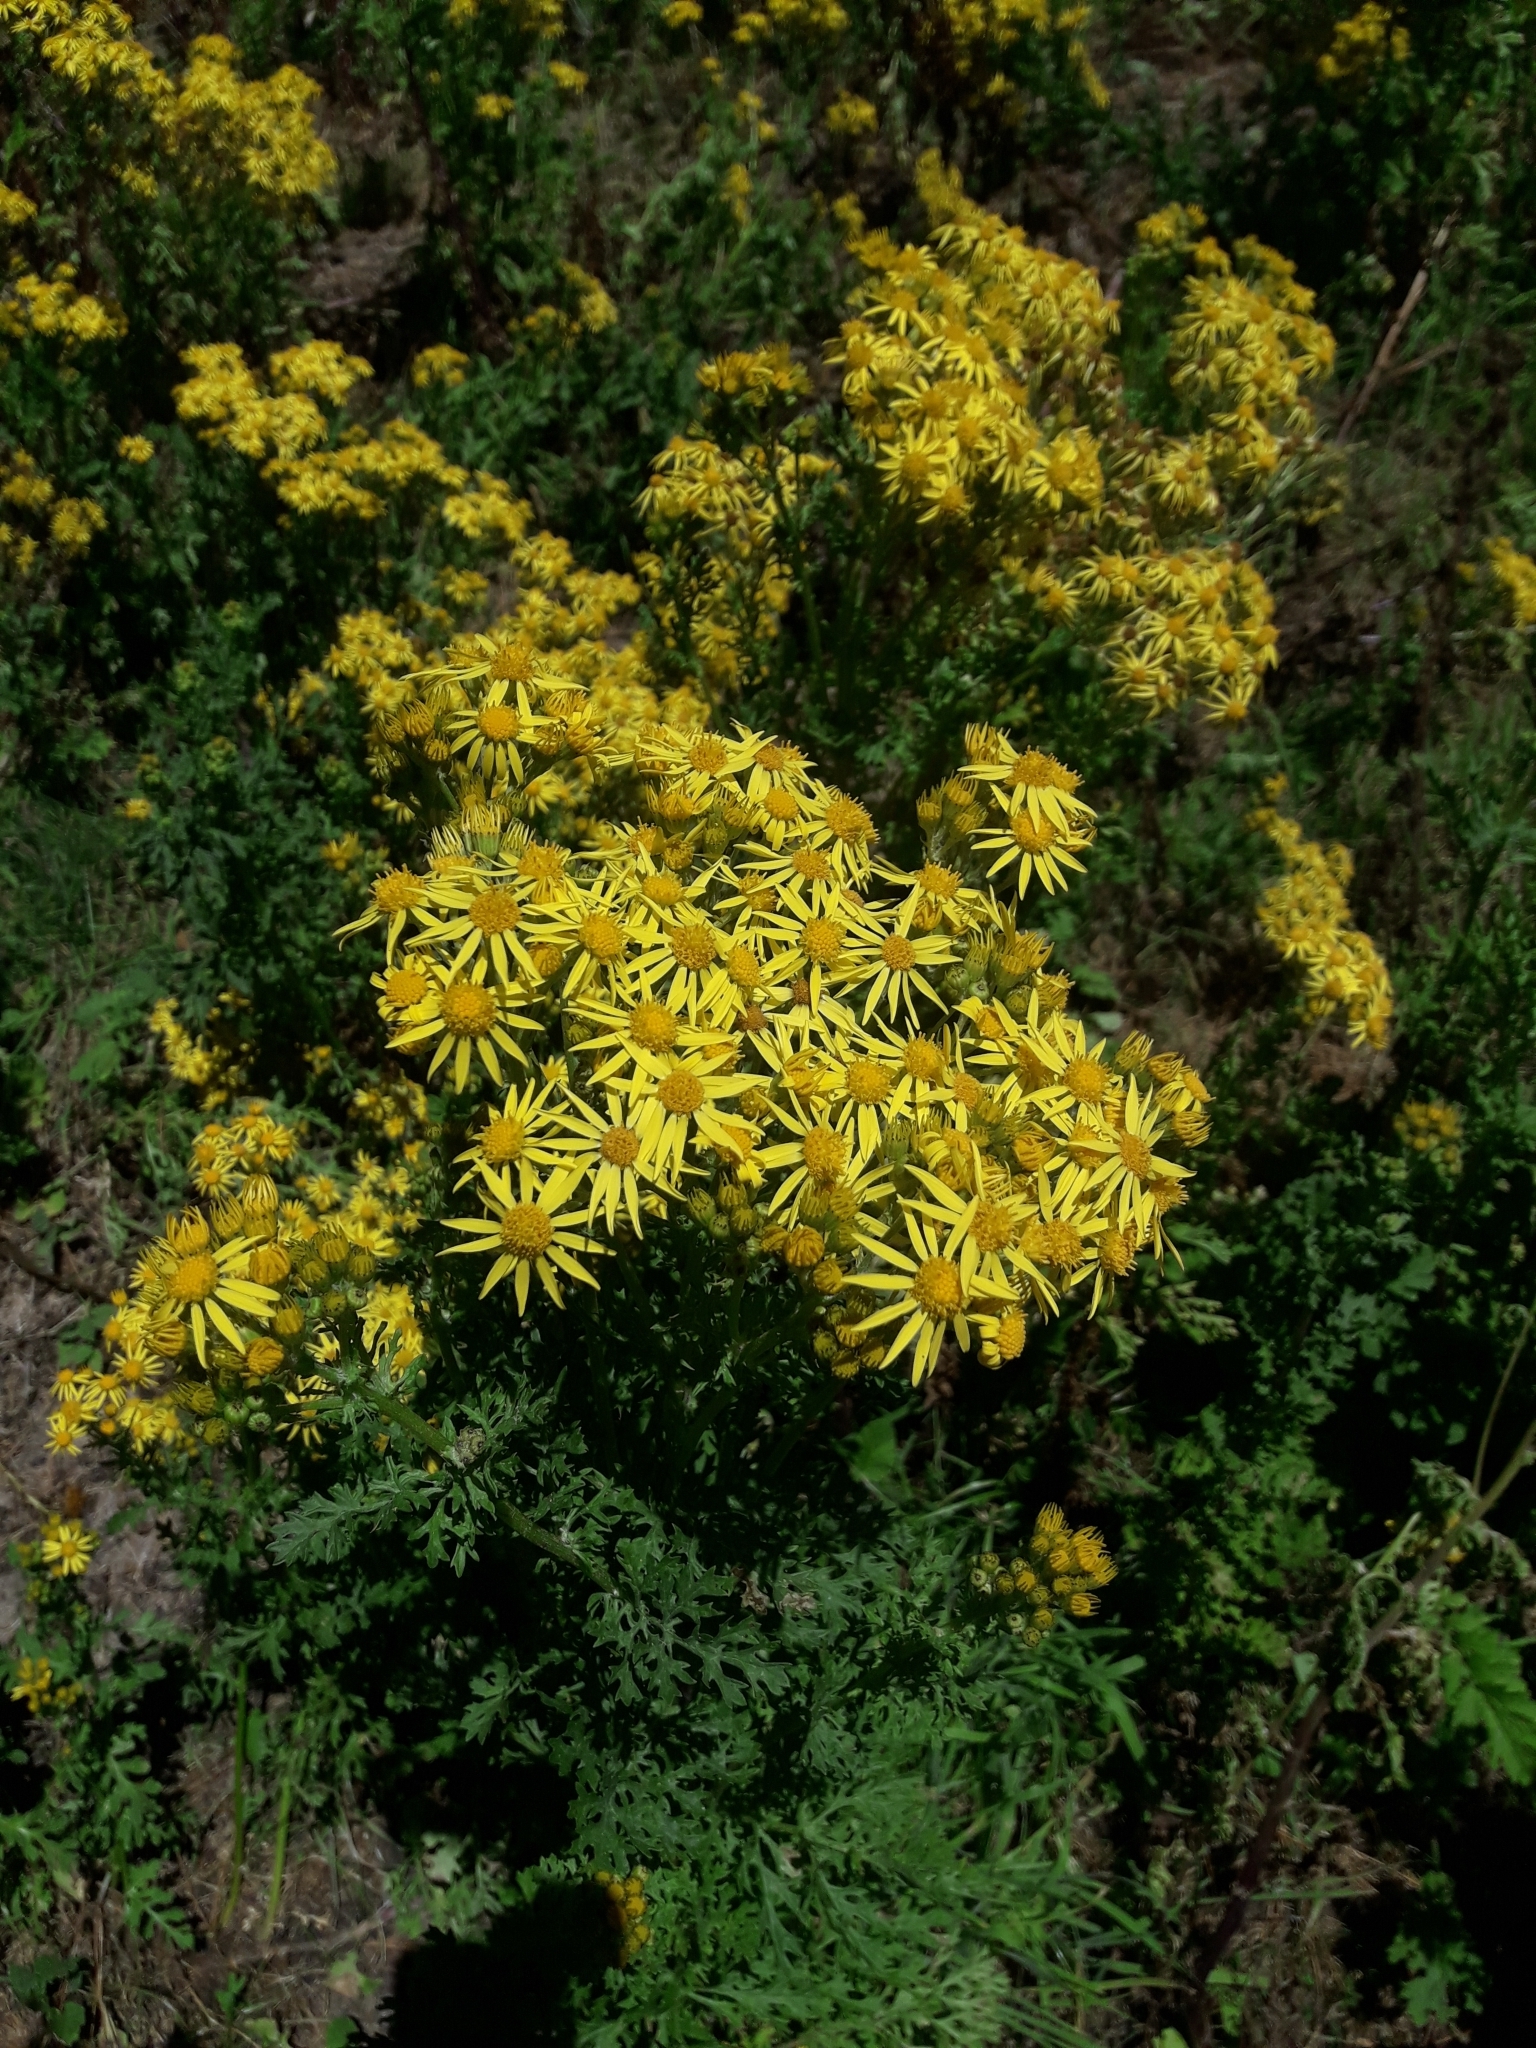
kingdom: Plantae
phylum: Tracheophyta
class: Magnoliopsida
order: Asterales
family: Asteraceae
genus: Jacobaea
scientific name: Jacobaea vulgaris
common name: Stinking willie
